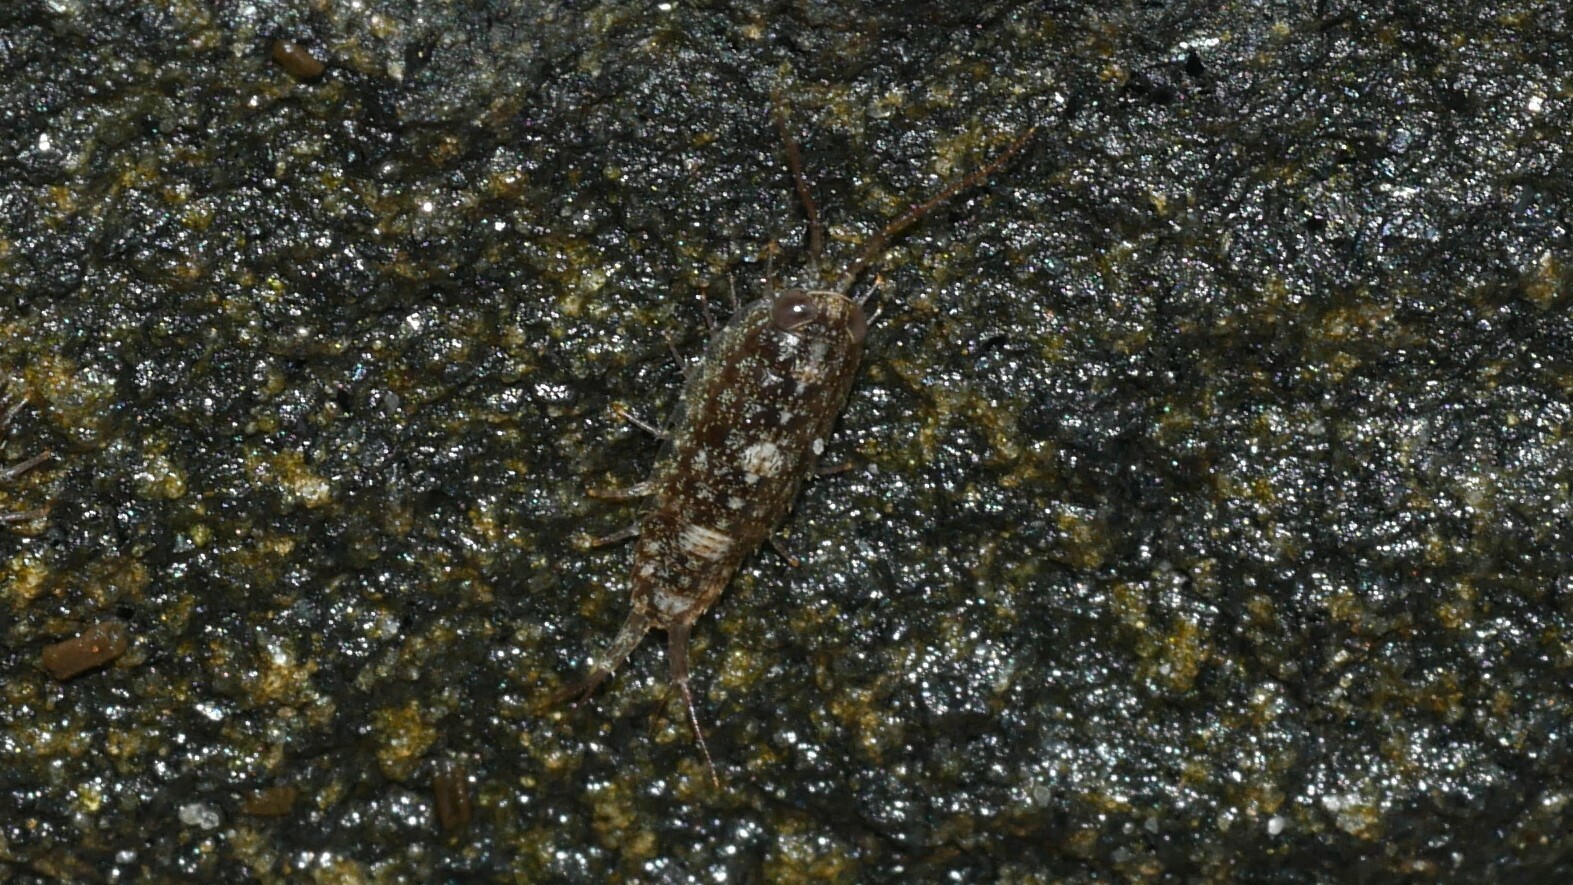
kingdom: Animalia
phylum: Arthropoda
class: Malacostraca
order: Isopoda
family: Ligiidae
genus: Ligia
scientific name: Ligia exotica
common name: Wharf roach
